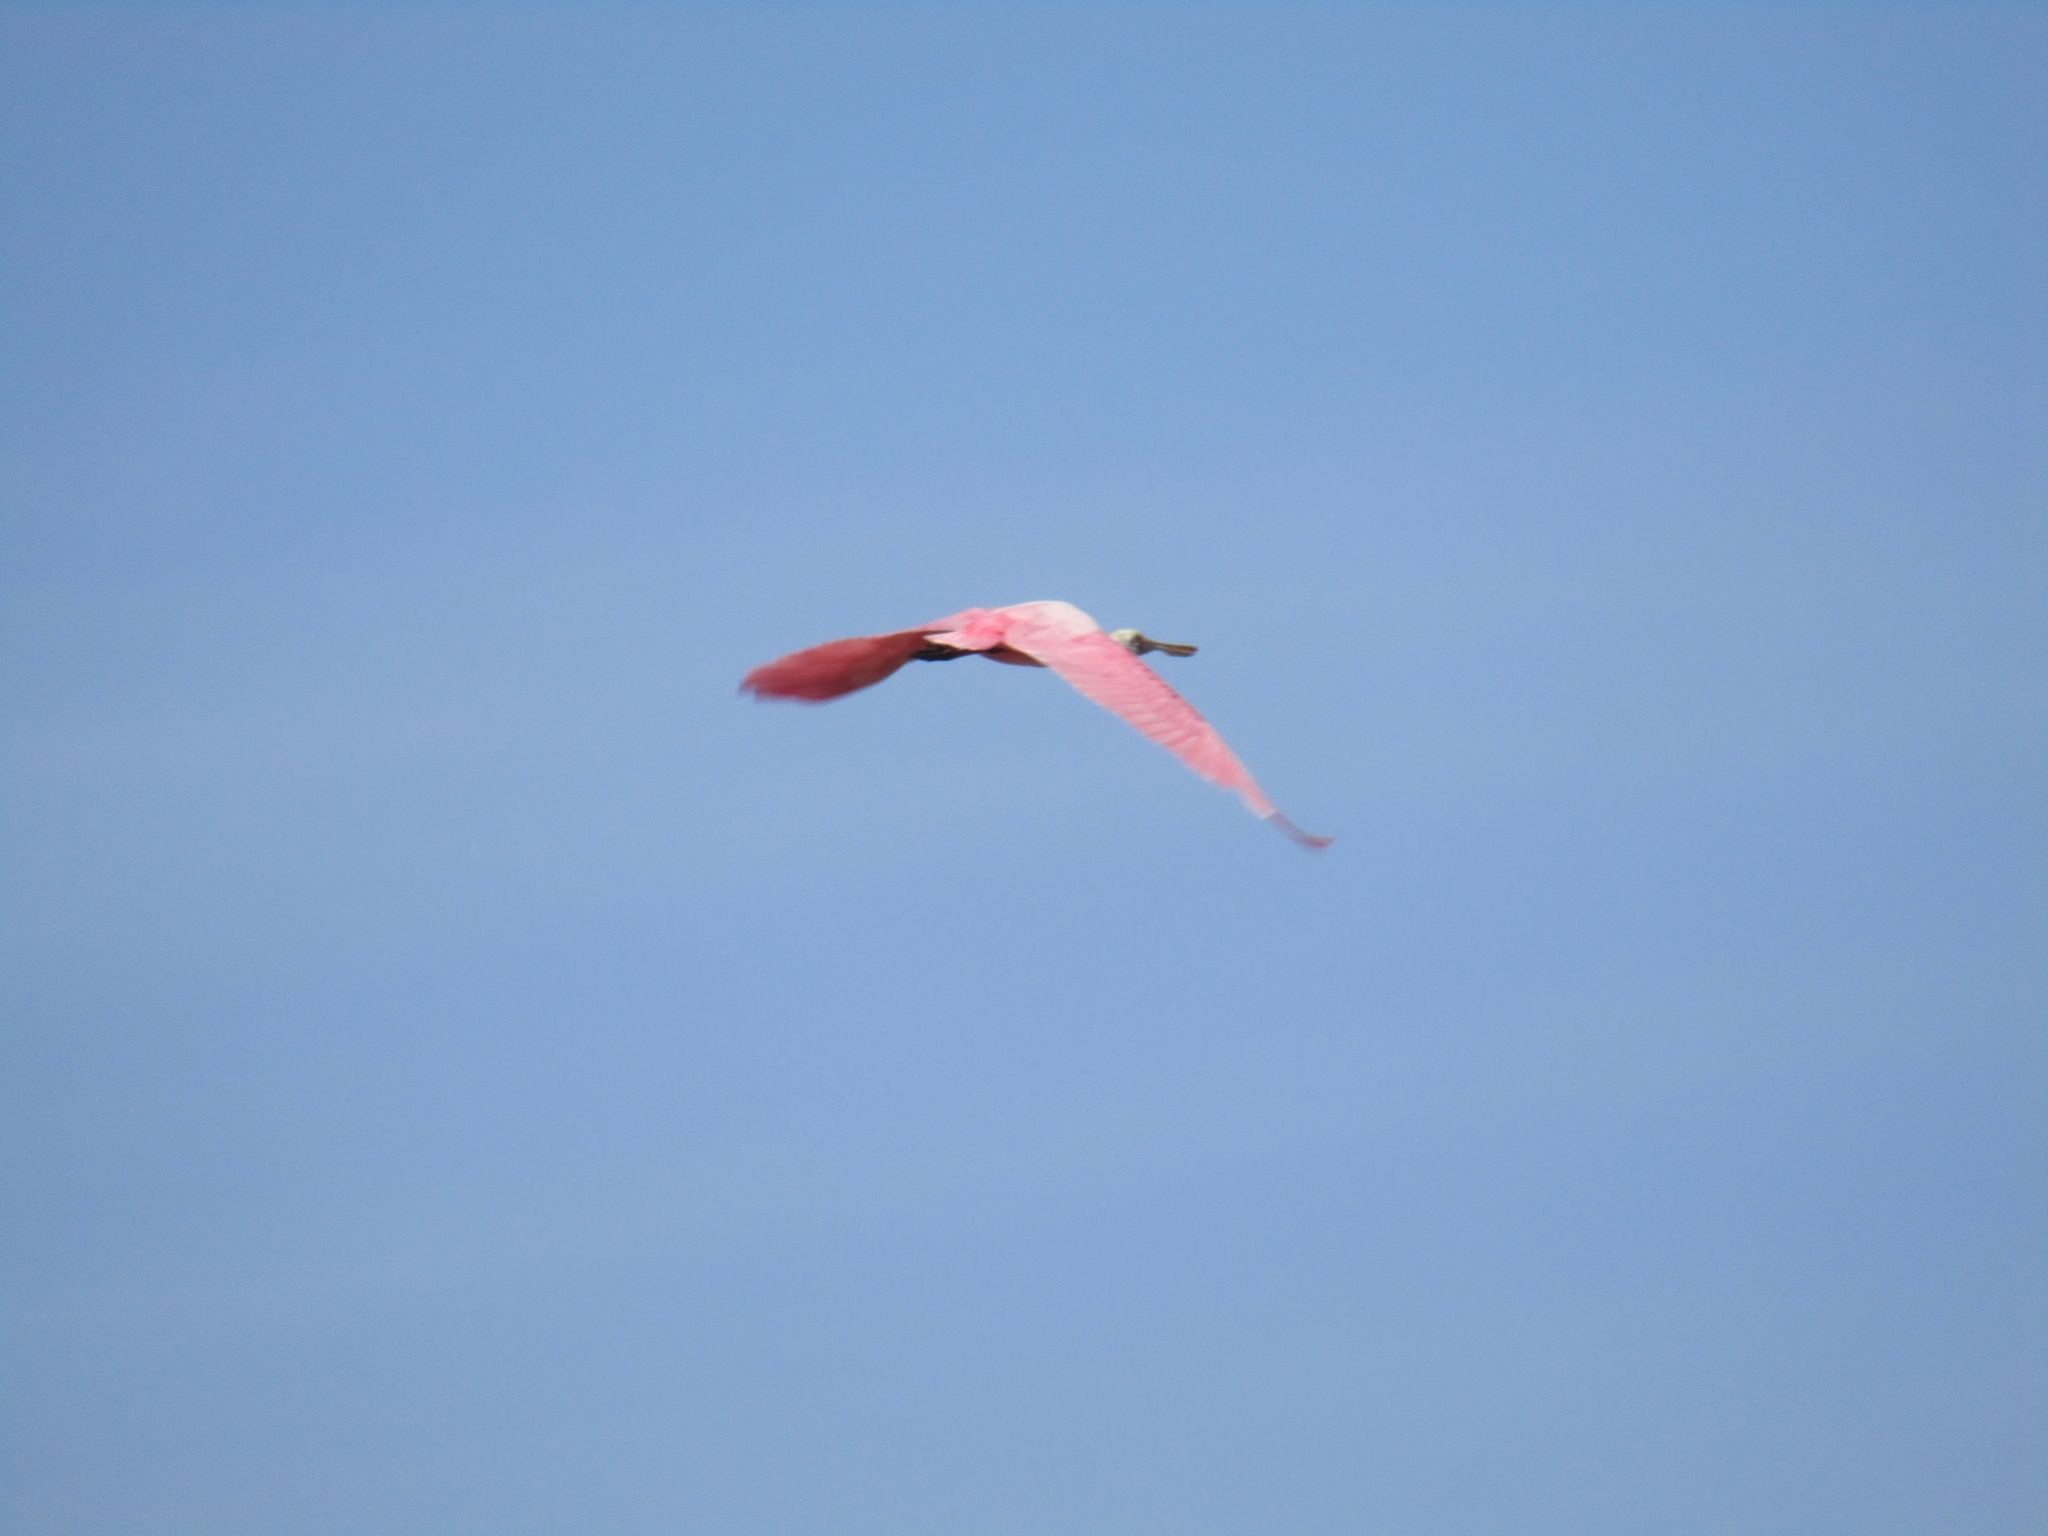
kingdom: Animalia
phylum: Chordata
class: Aves
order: Pelecaniformes
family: Threskiornithidae
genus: Platalea
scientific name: Platalea ajaja
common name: Roseate spoonbill
